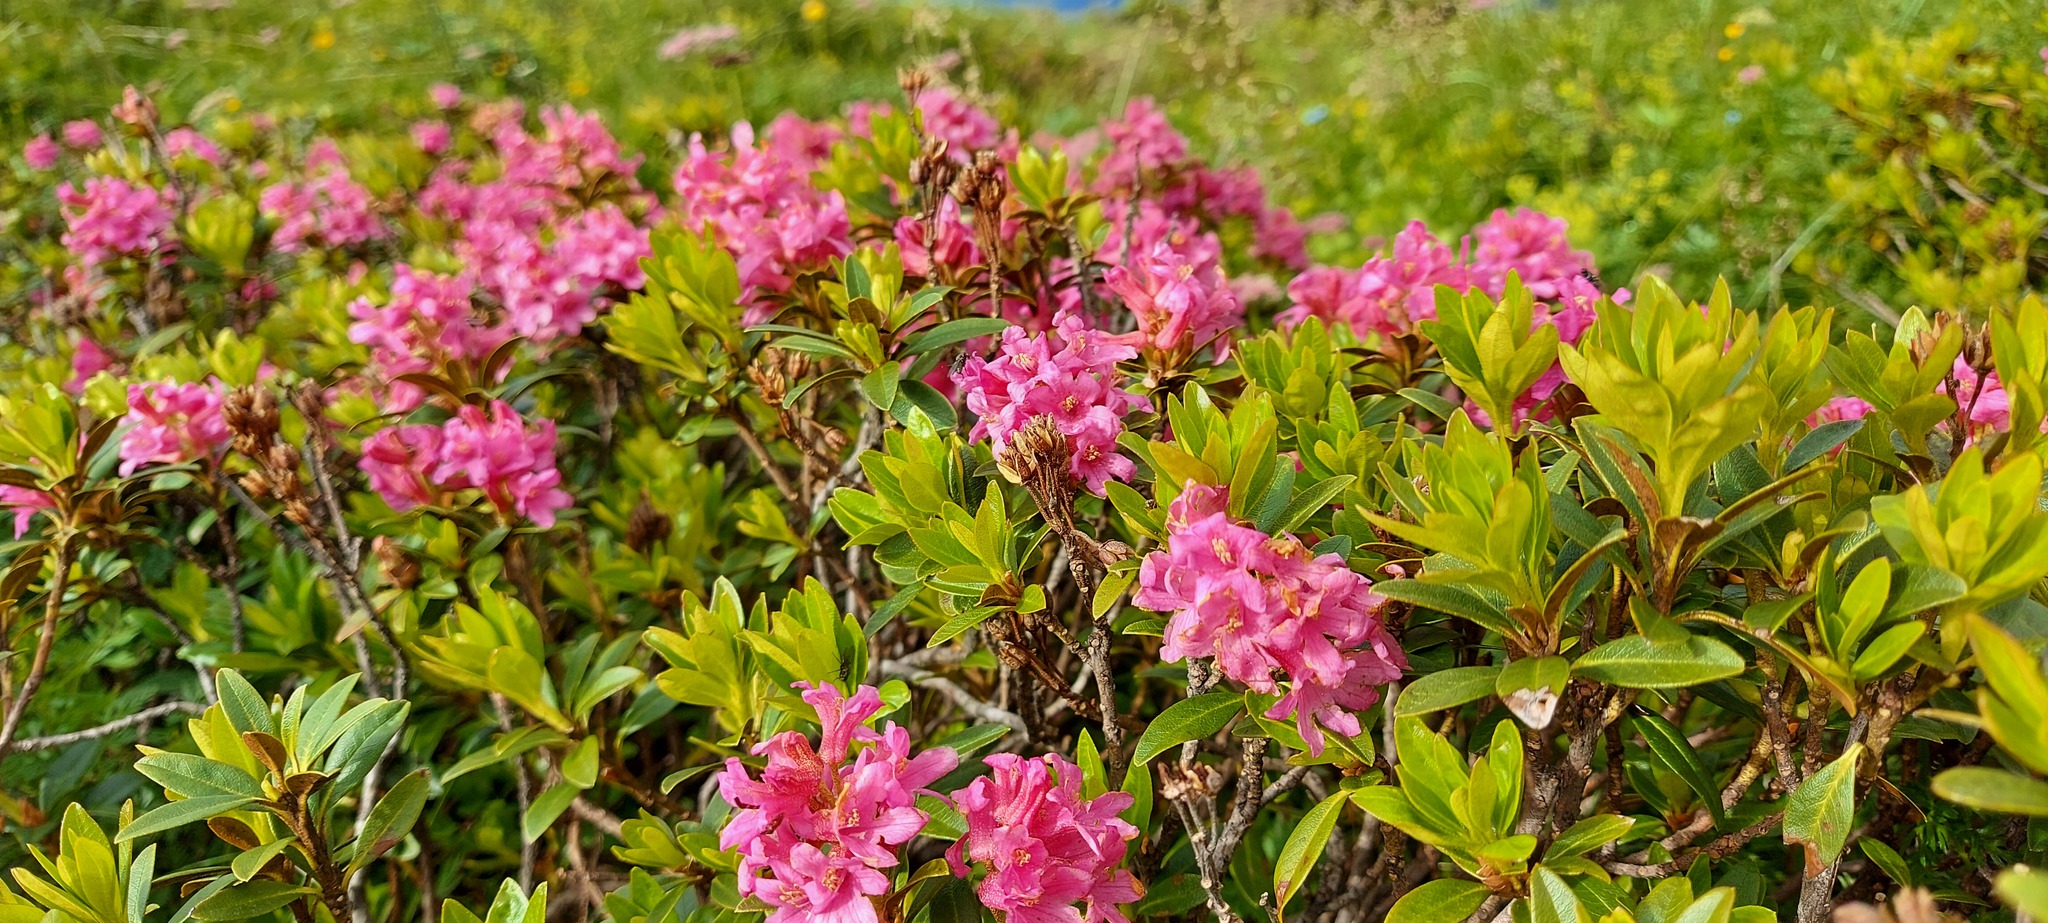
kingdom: Plantae
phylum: Tracheophyta
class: Magnoliopsida
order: Ericales
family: Ericaceae
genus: Rhododendron
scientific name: Rhododendron ferrugineum
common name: Alpenrose
